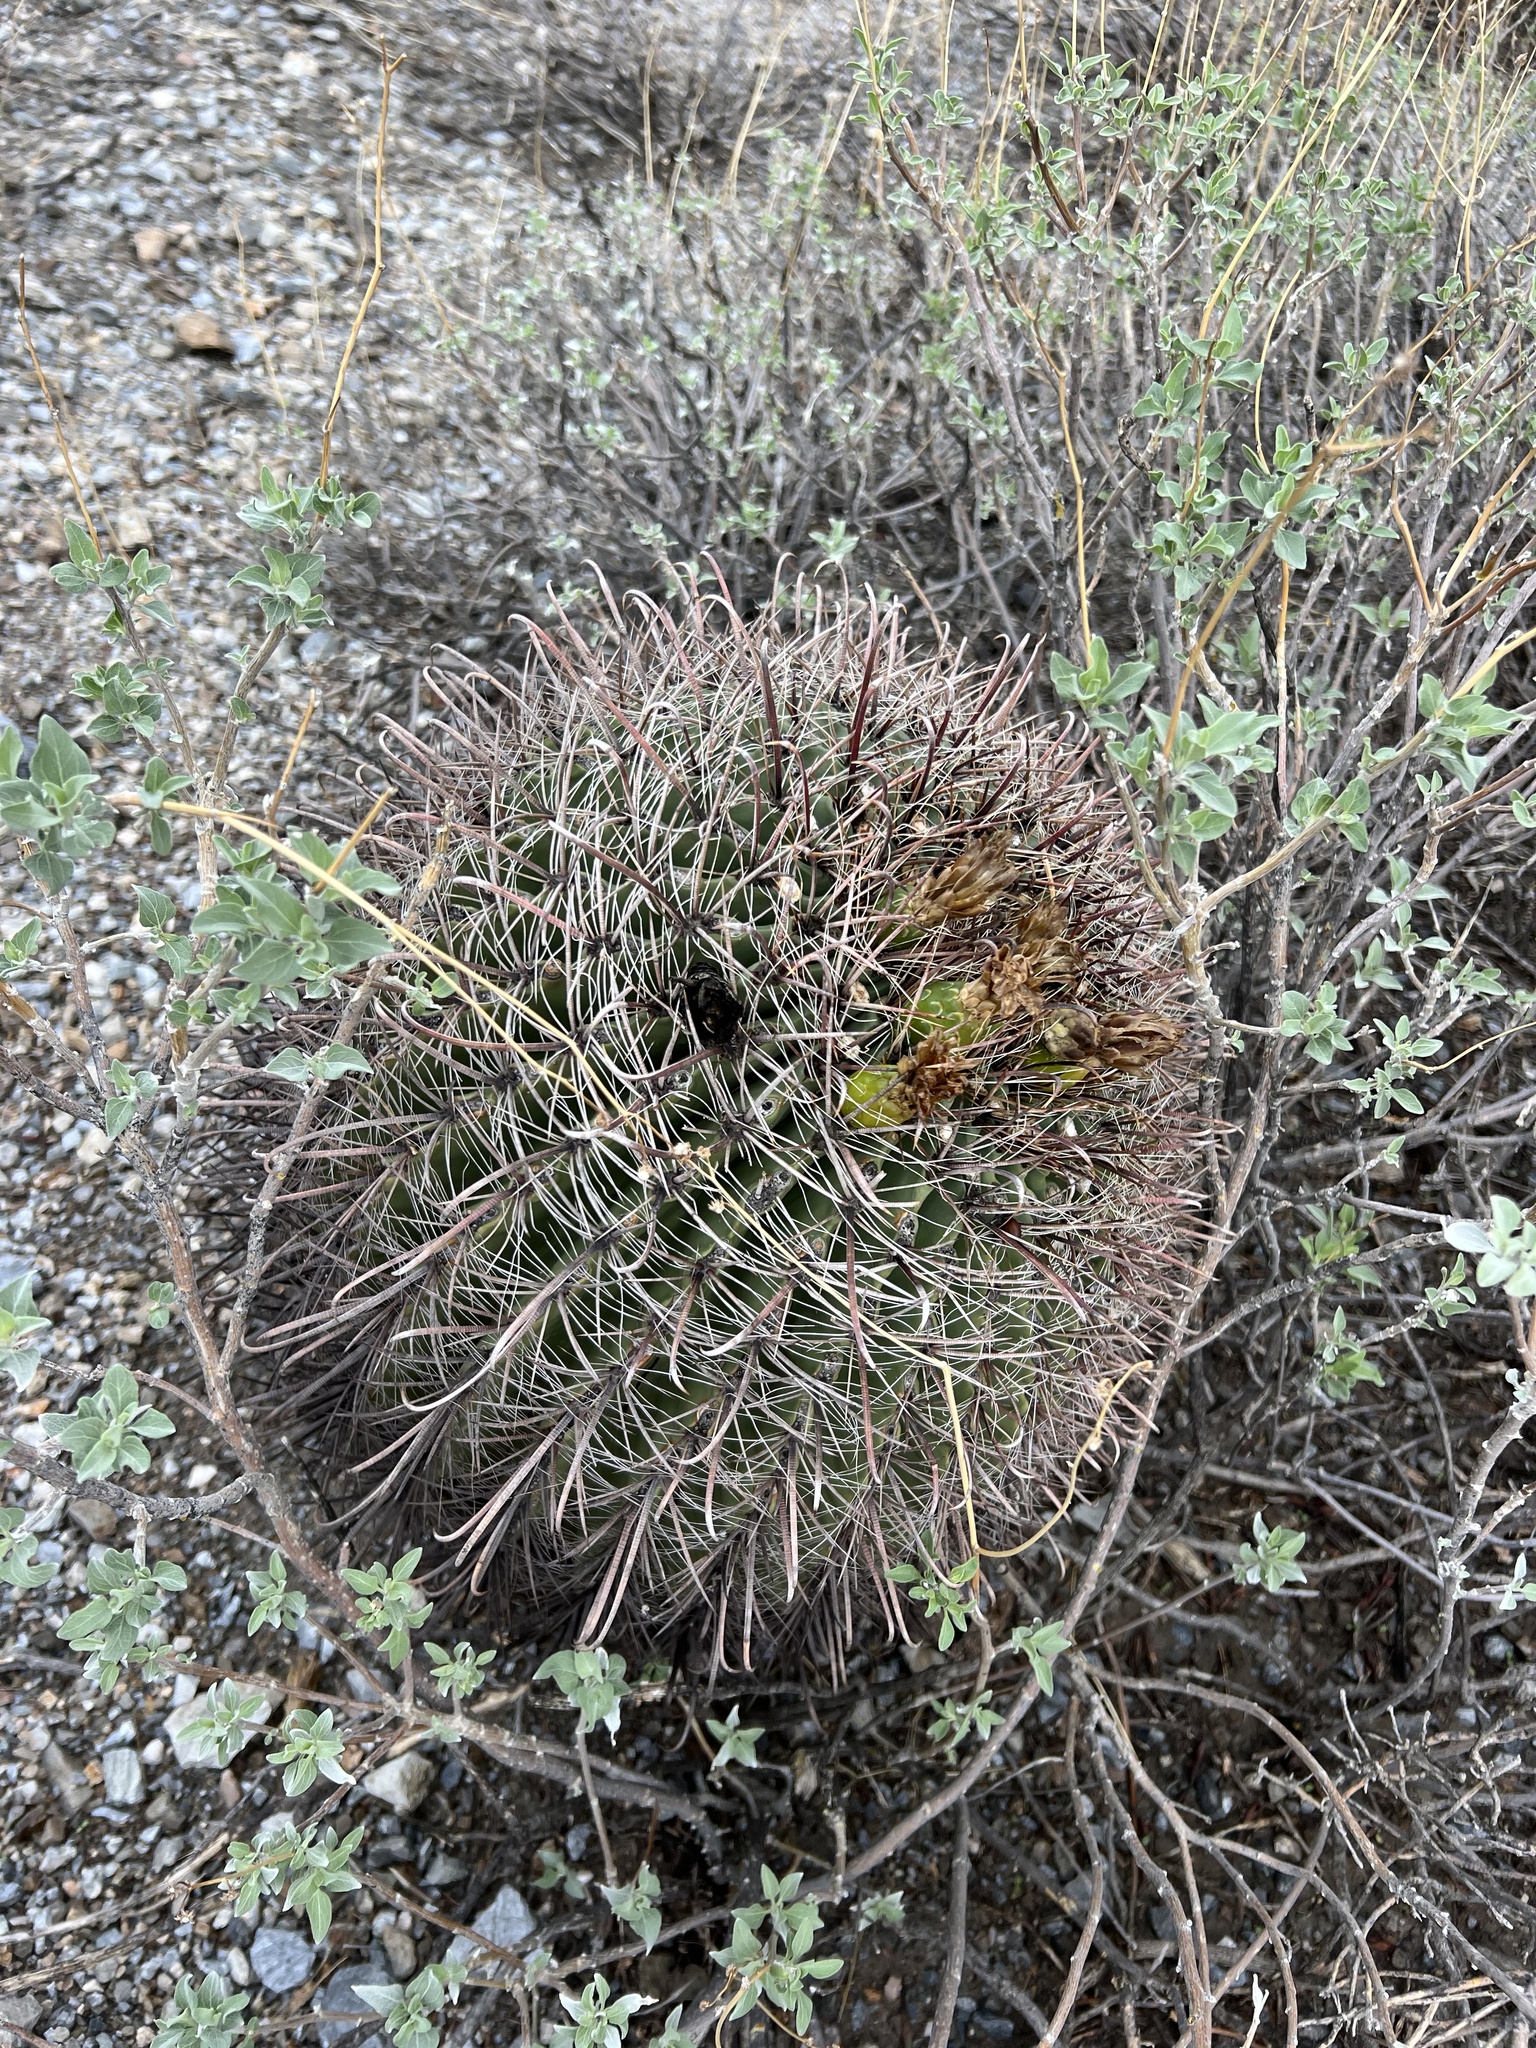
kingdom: Plantae
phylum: Tracheophyta
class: Magnoliopsida
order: Caryophyllales
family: Cactaceae
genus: Ferocactus
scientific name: Ferocactus wislizeni
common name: Candy barrel cactus
